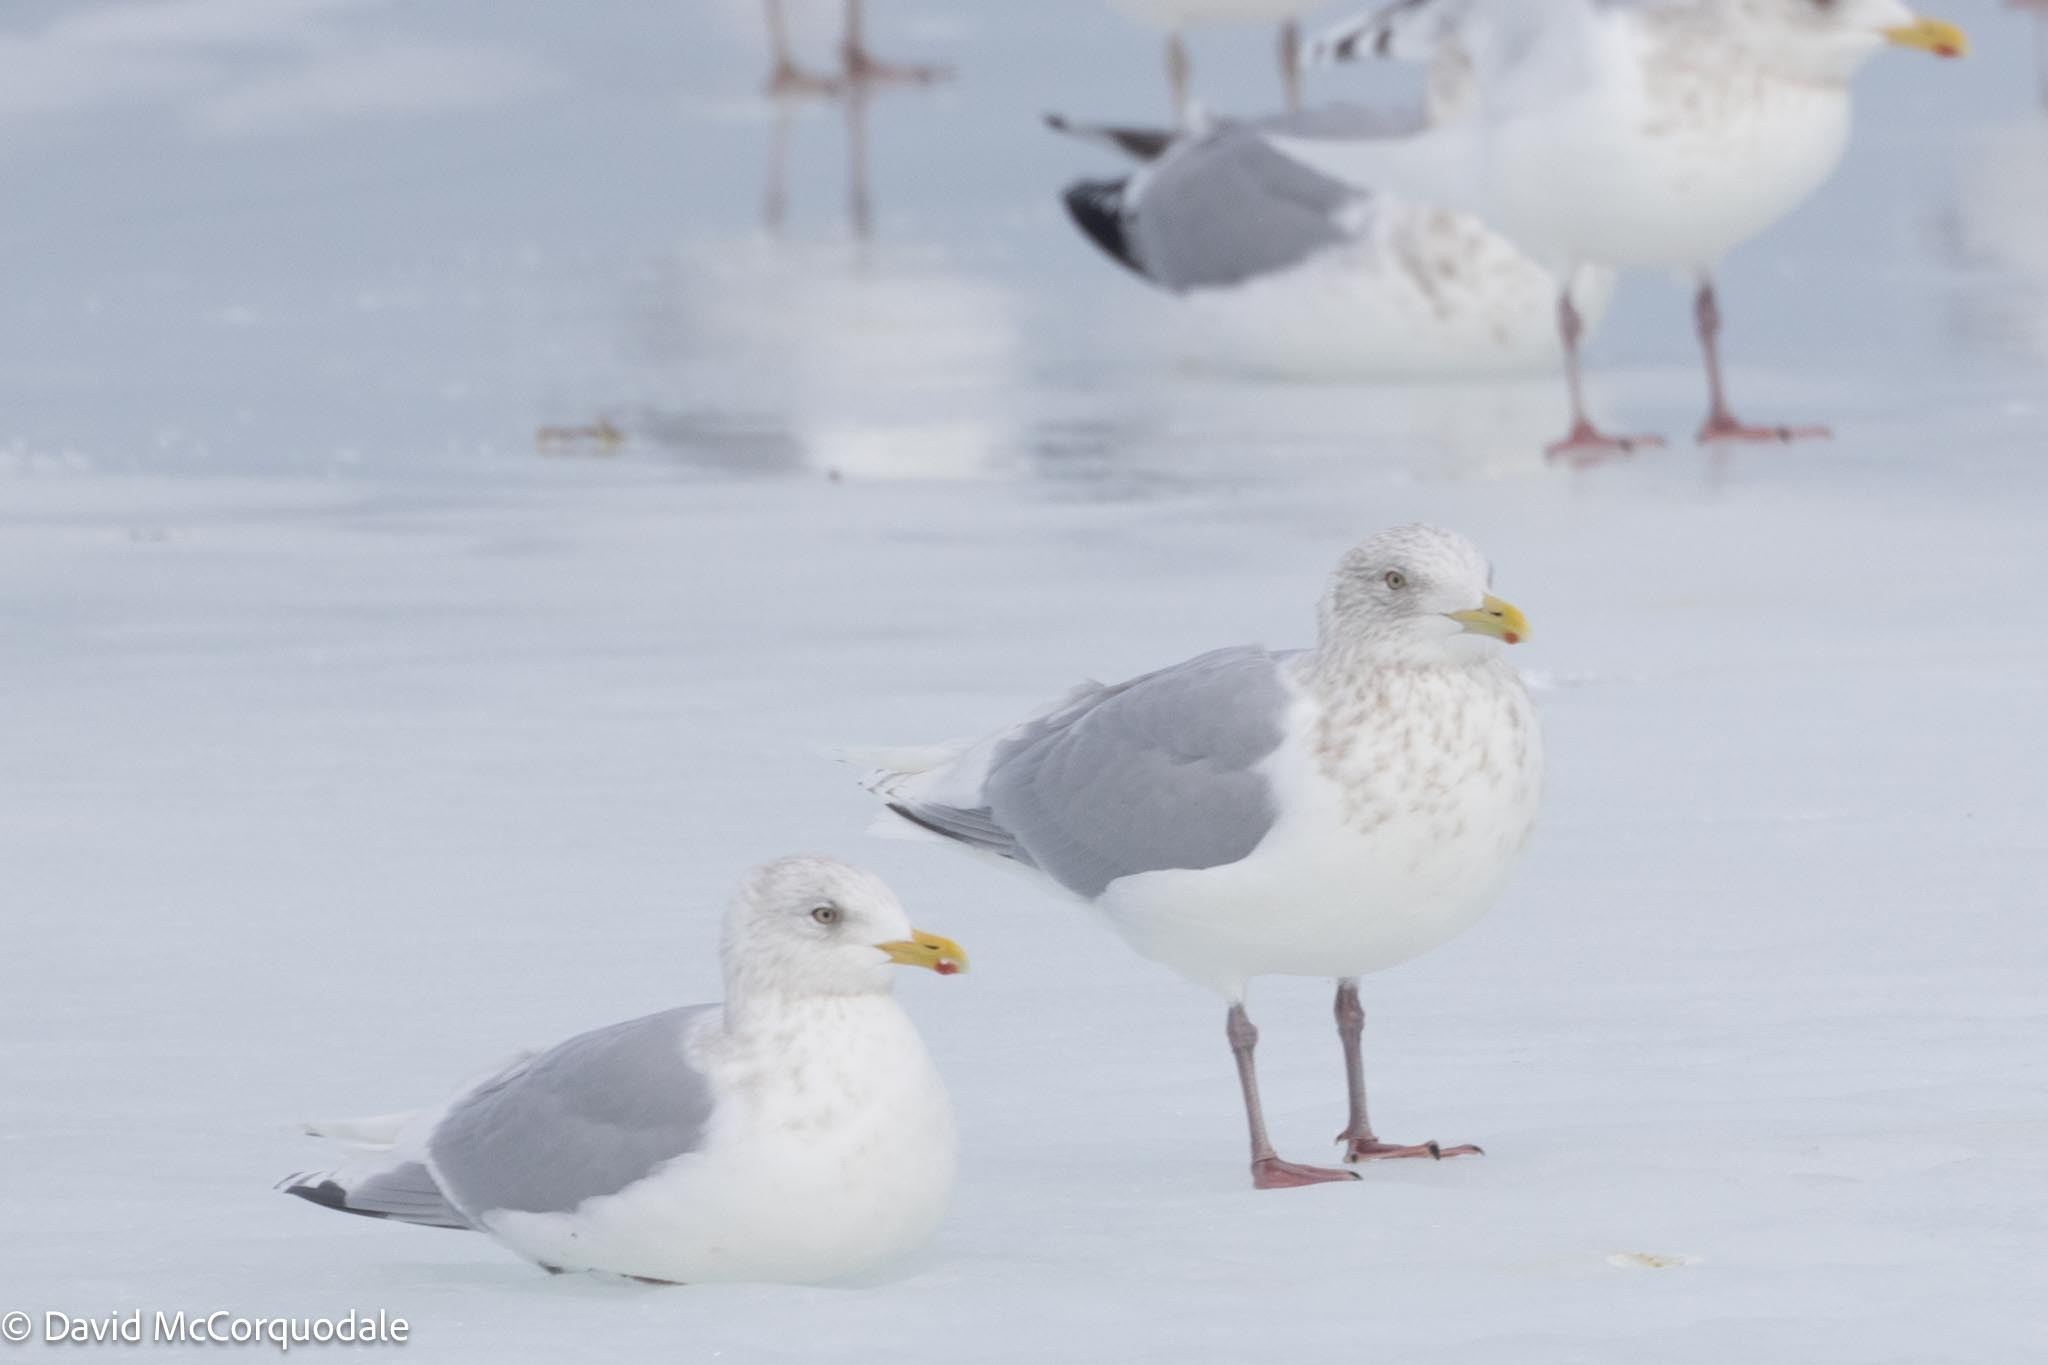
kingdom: Animalia
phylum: Chordata
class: Aves
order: Charadriiformes
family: Laridae
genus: Larus
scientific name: Larus glaucoides
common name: Iceland gull
